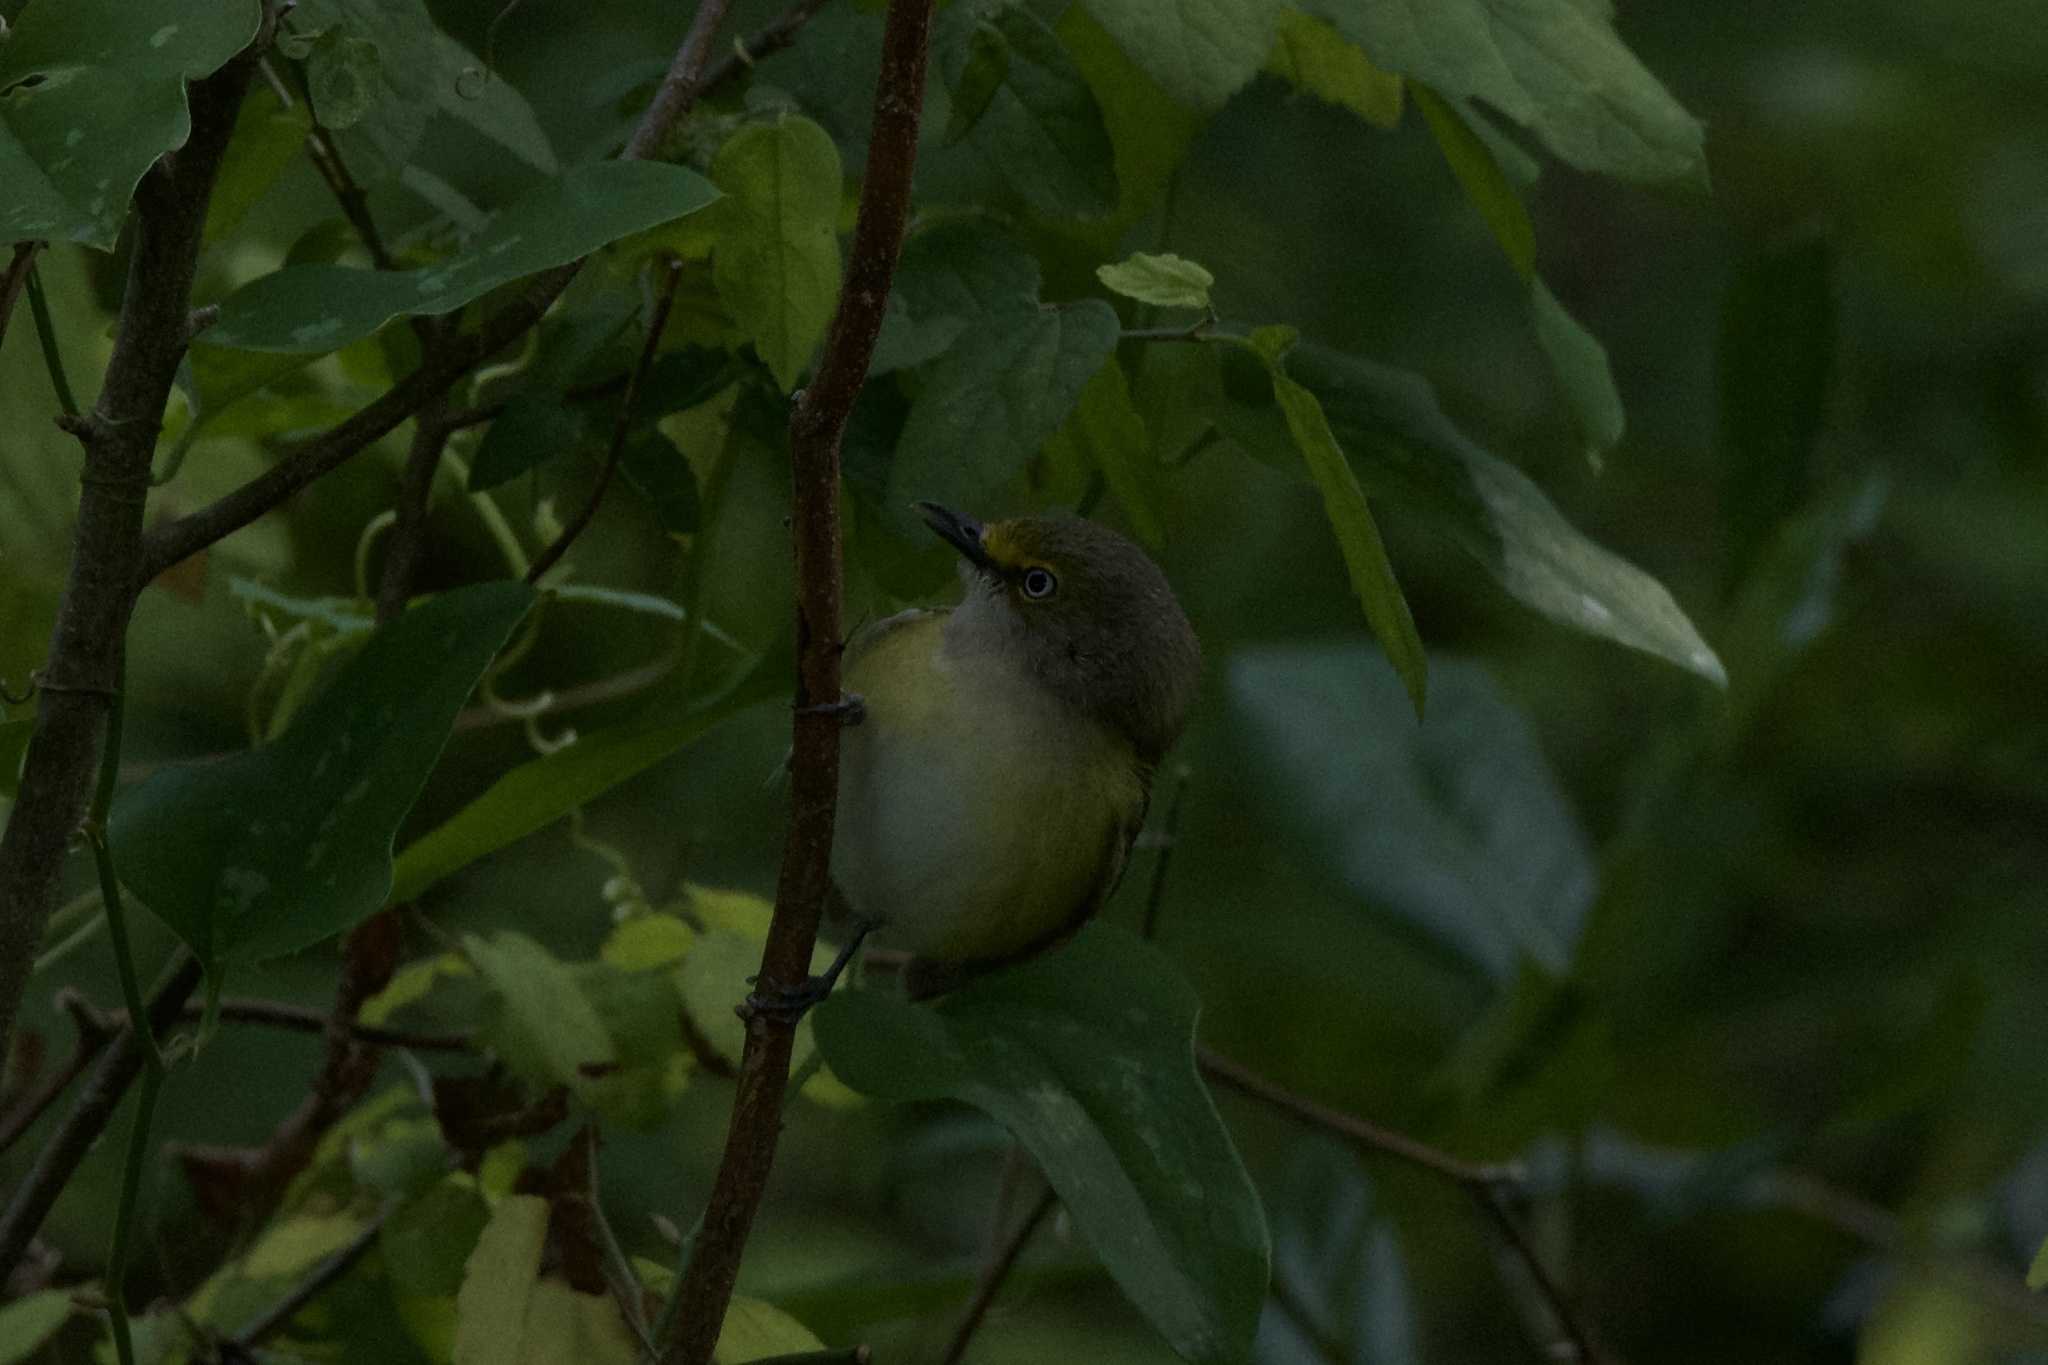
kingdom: Animalia
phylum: Chordata
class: Aves
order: Passeriformes
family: Vireonidae
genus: Vireo
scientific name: Vireo griseus
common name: White-eyed vireo
